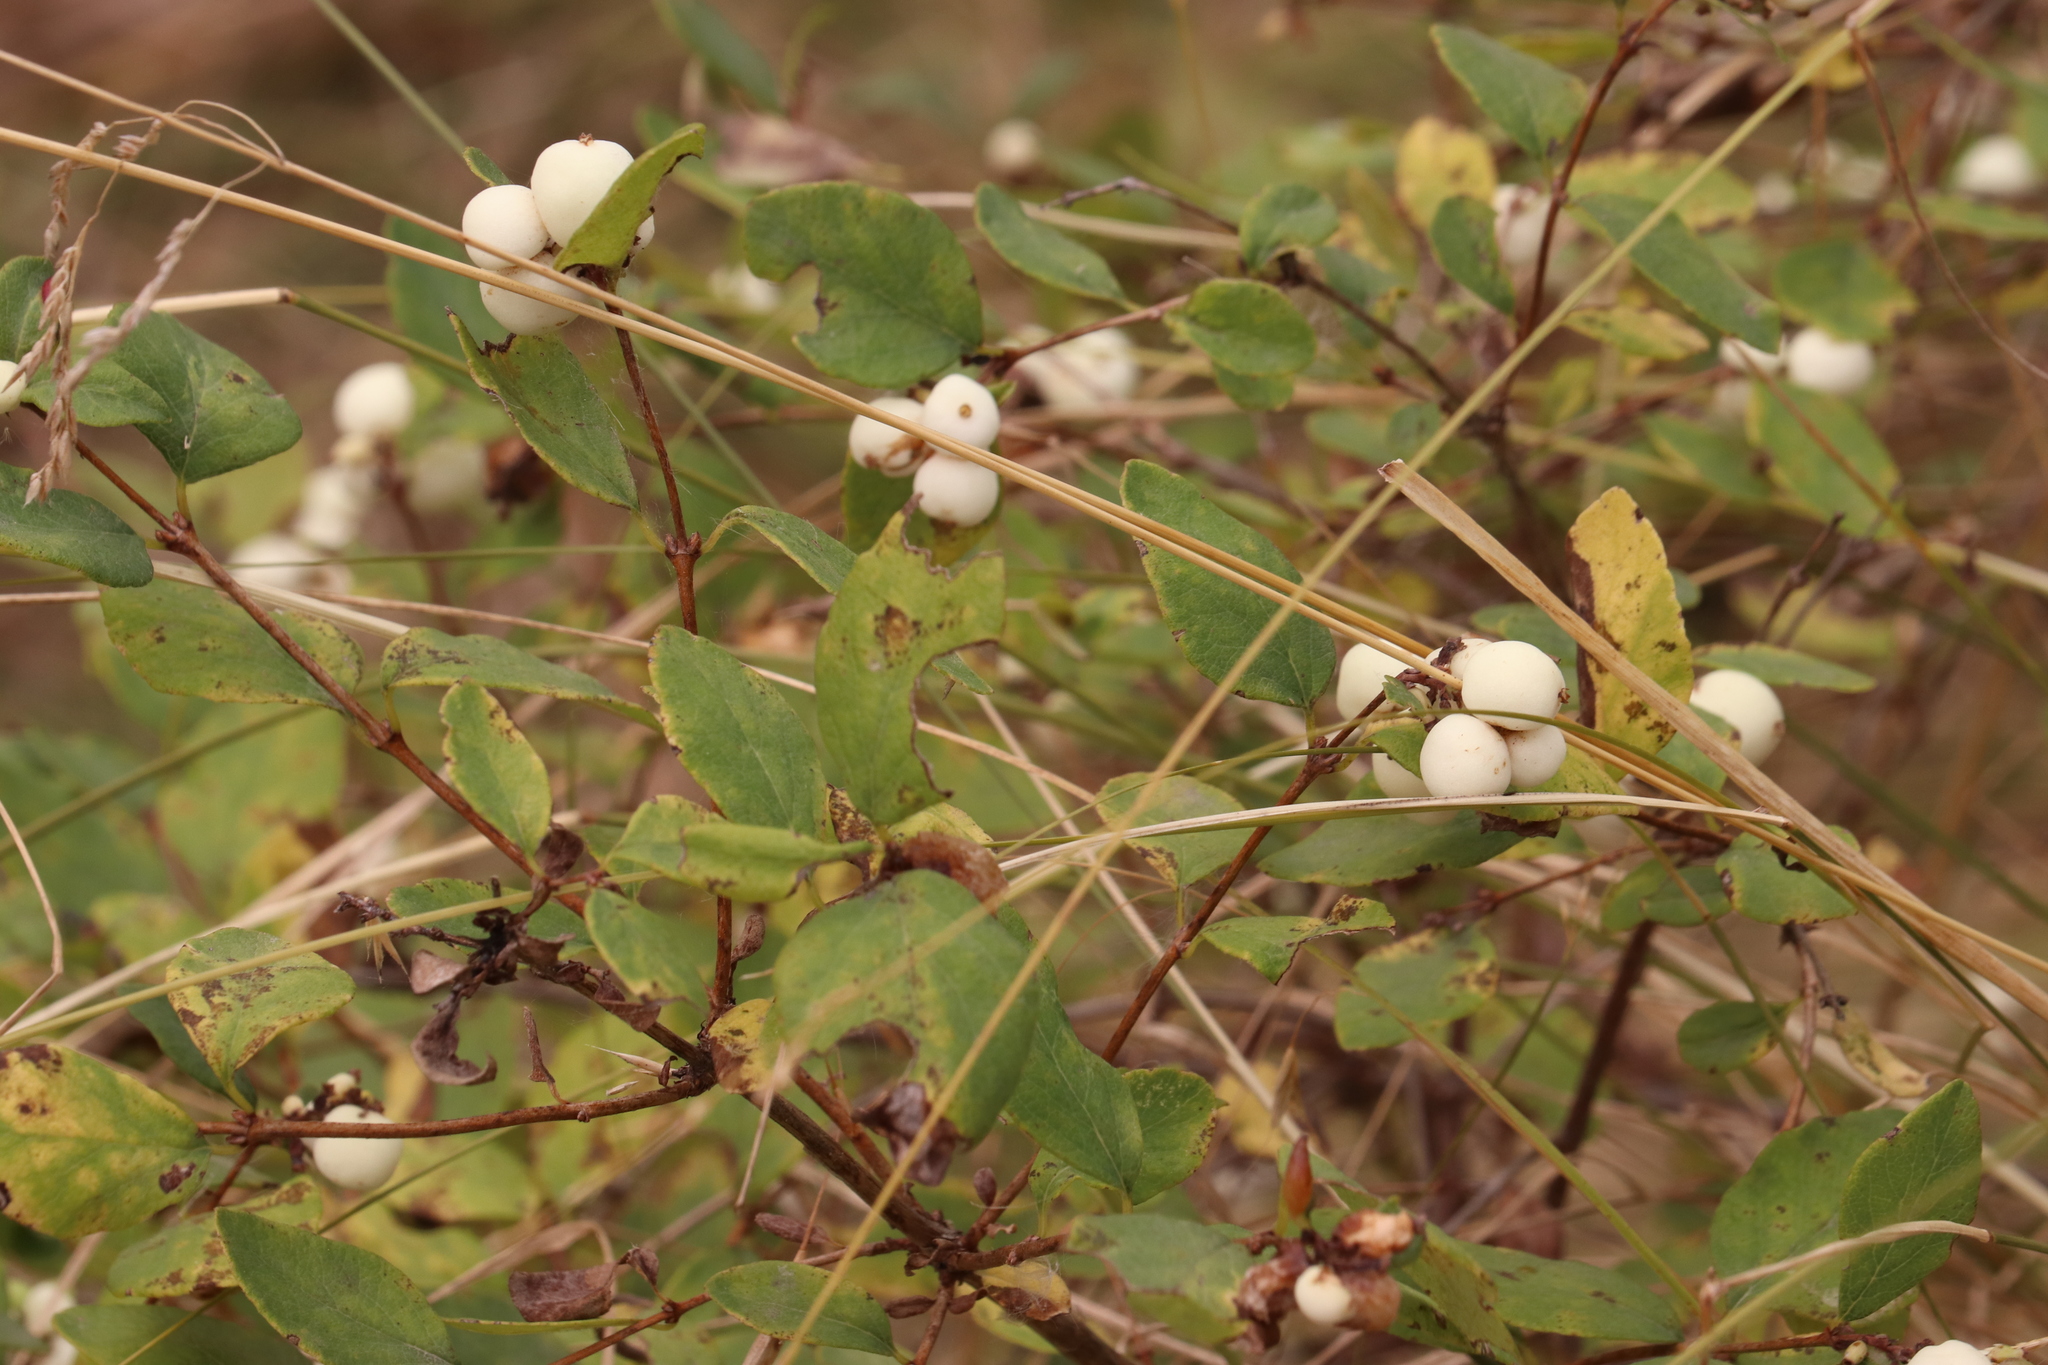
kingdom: Plantae
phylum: Tracheophyta
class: Magnoliopsida
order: Dipsacales
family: Caprifoliaceae
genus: Symphoricarpos
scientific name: Symphoricarpos albus
